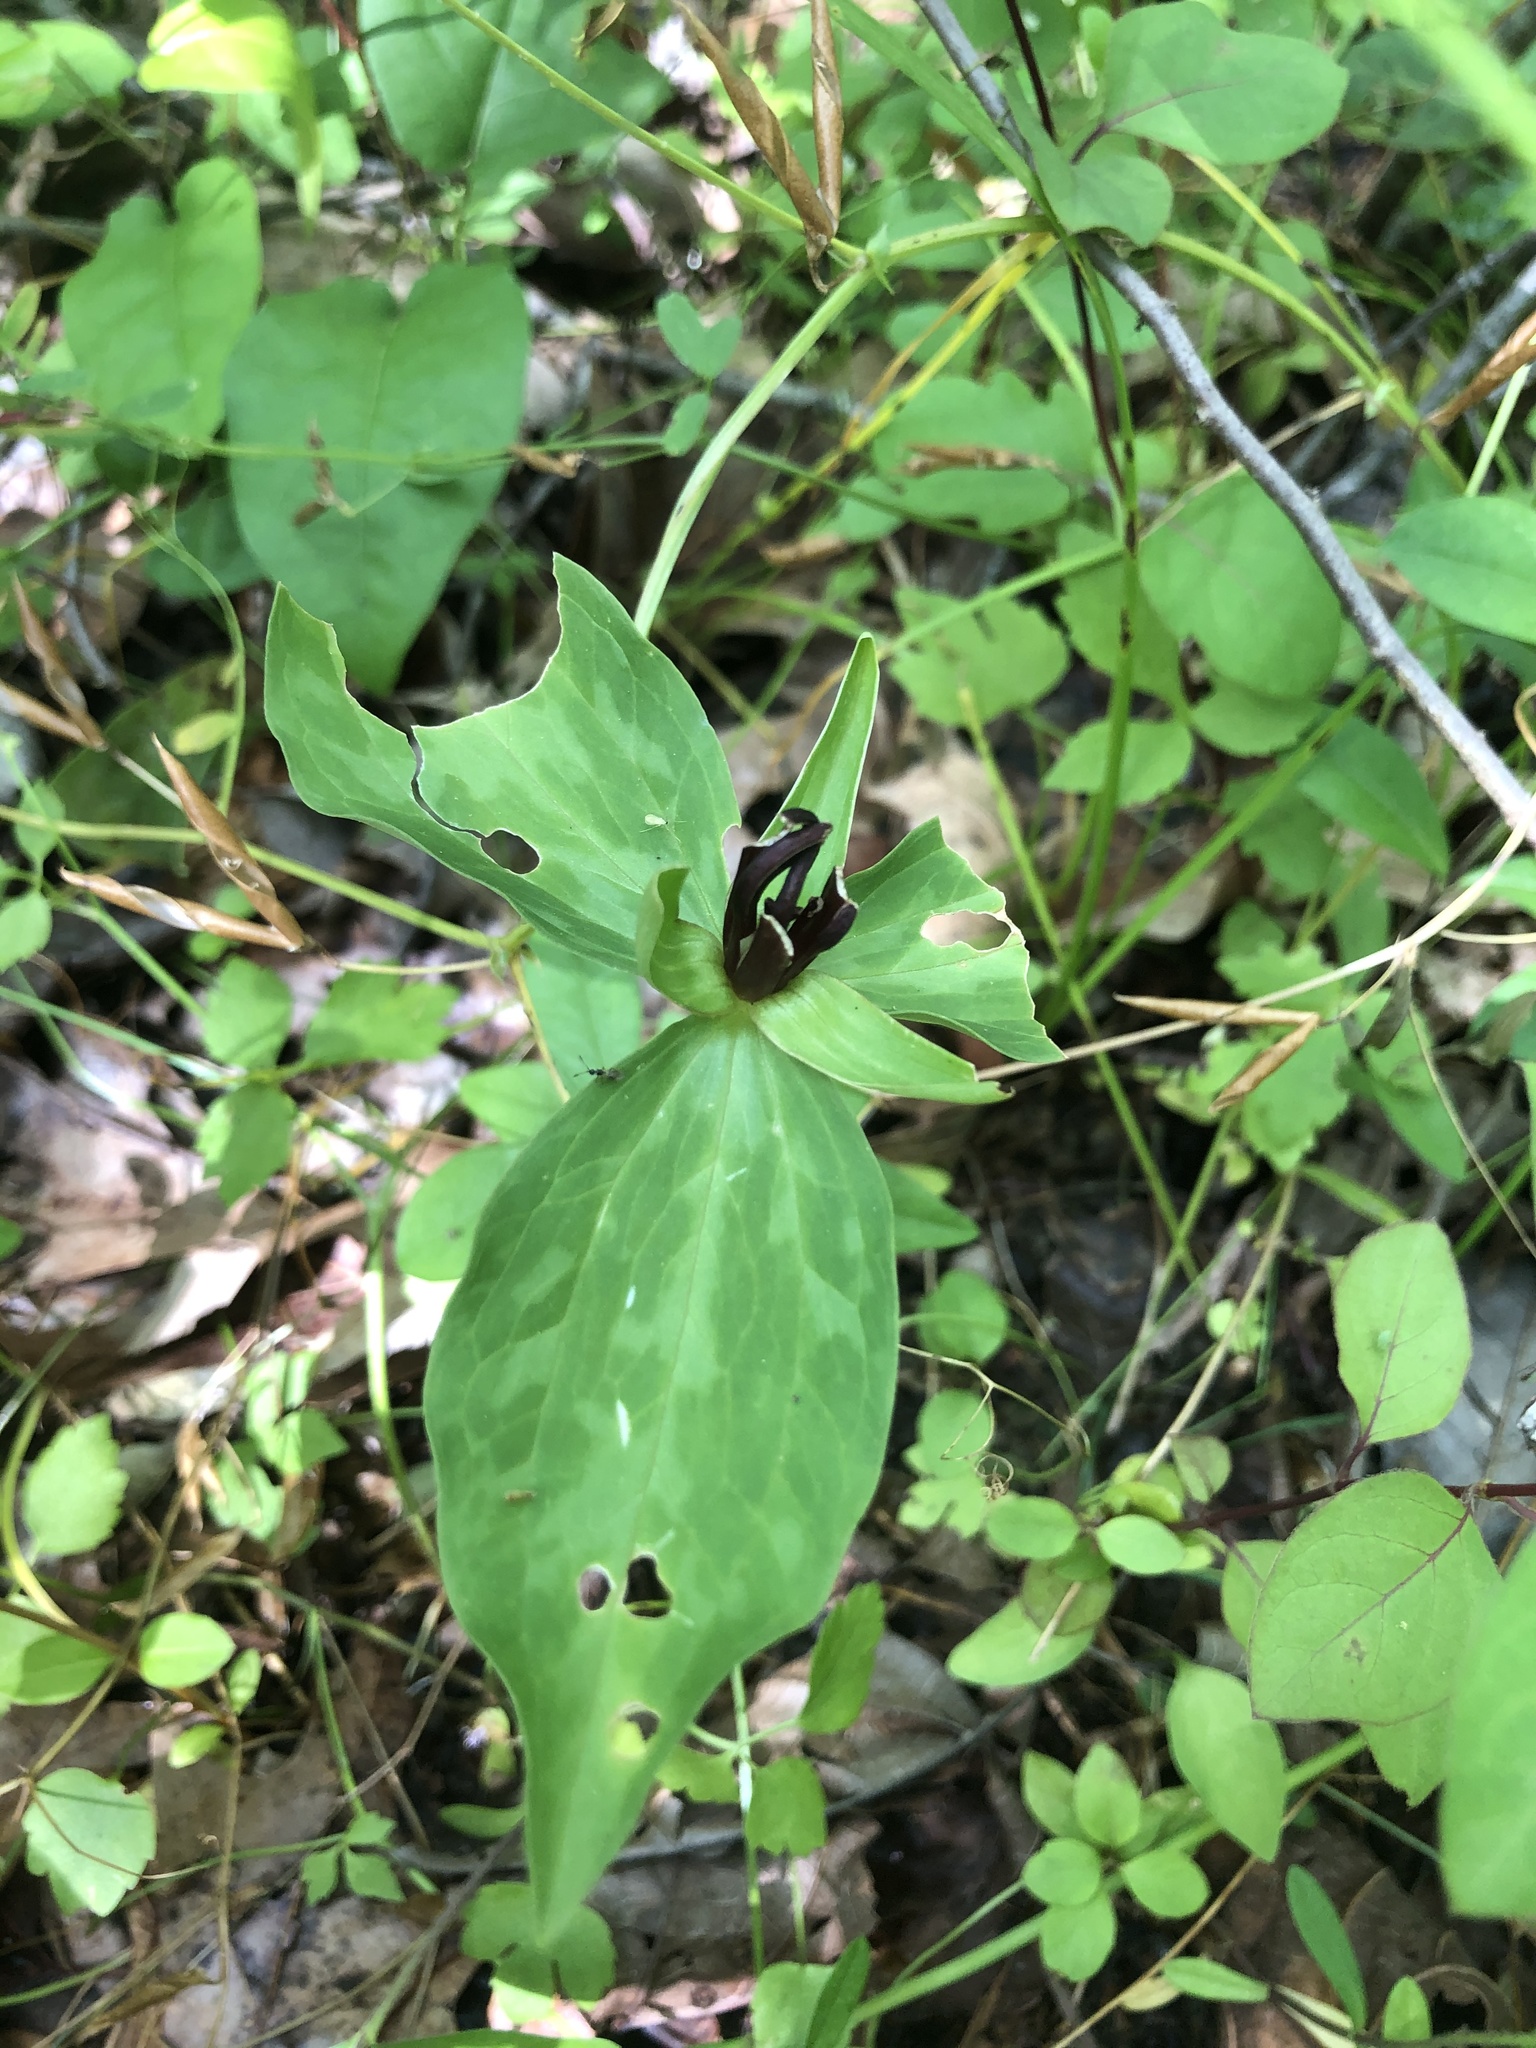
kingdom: Plantae
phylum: Tracheophyta
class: Liliopsida
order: Liliales
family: Melanthiaceae
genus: Trillium
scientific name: Trillium lancifolium
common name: Lance-leaved trillium
